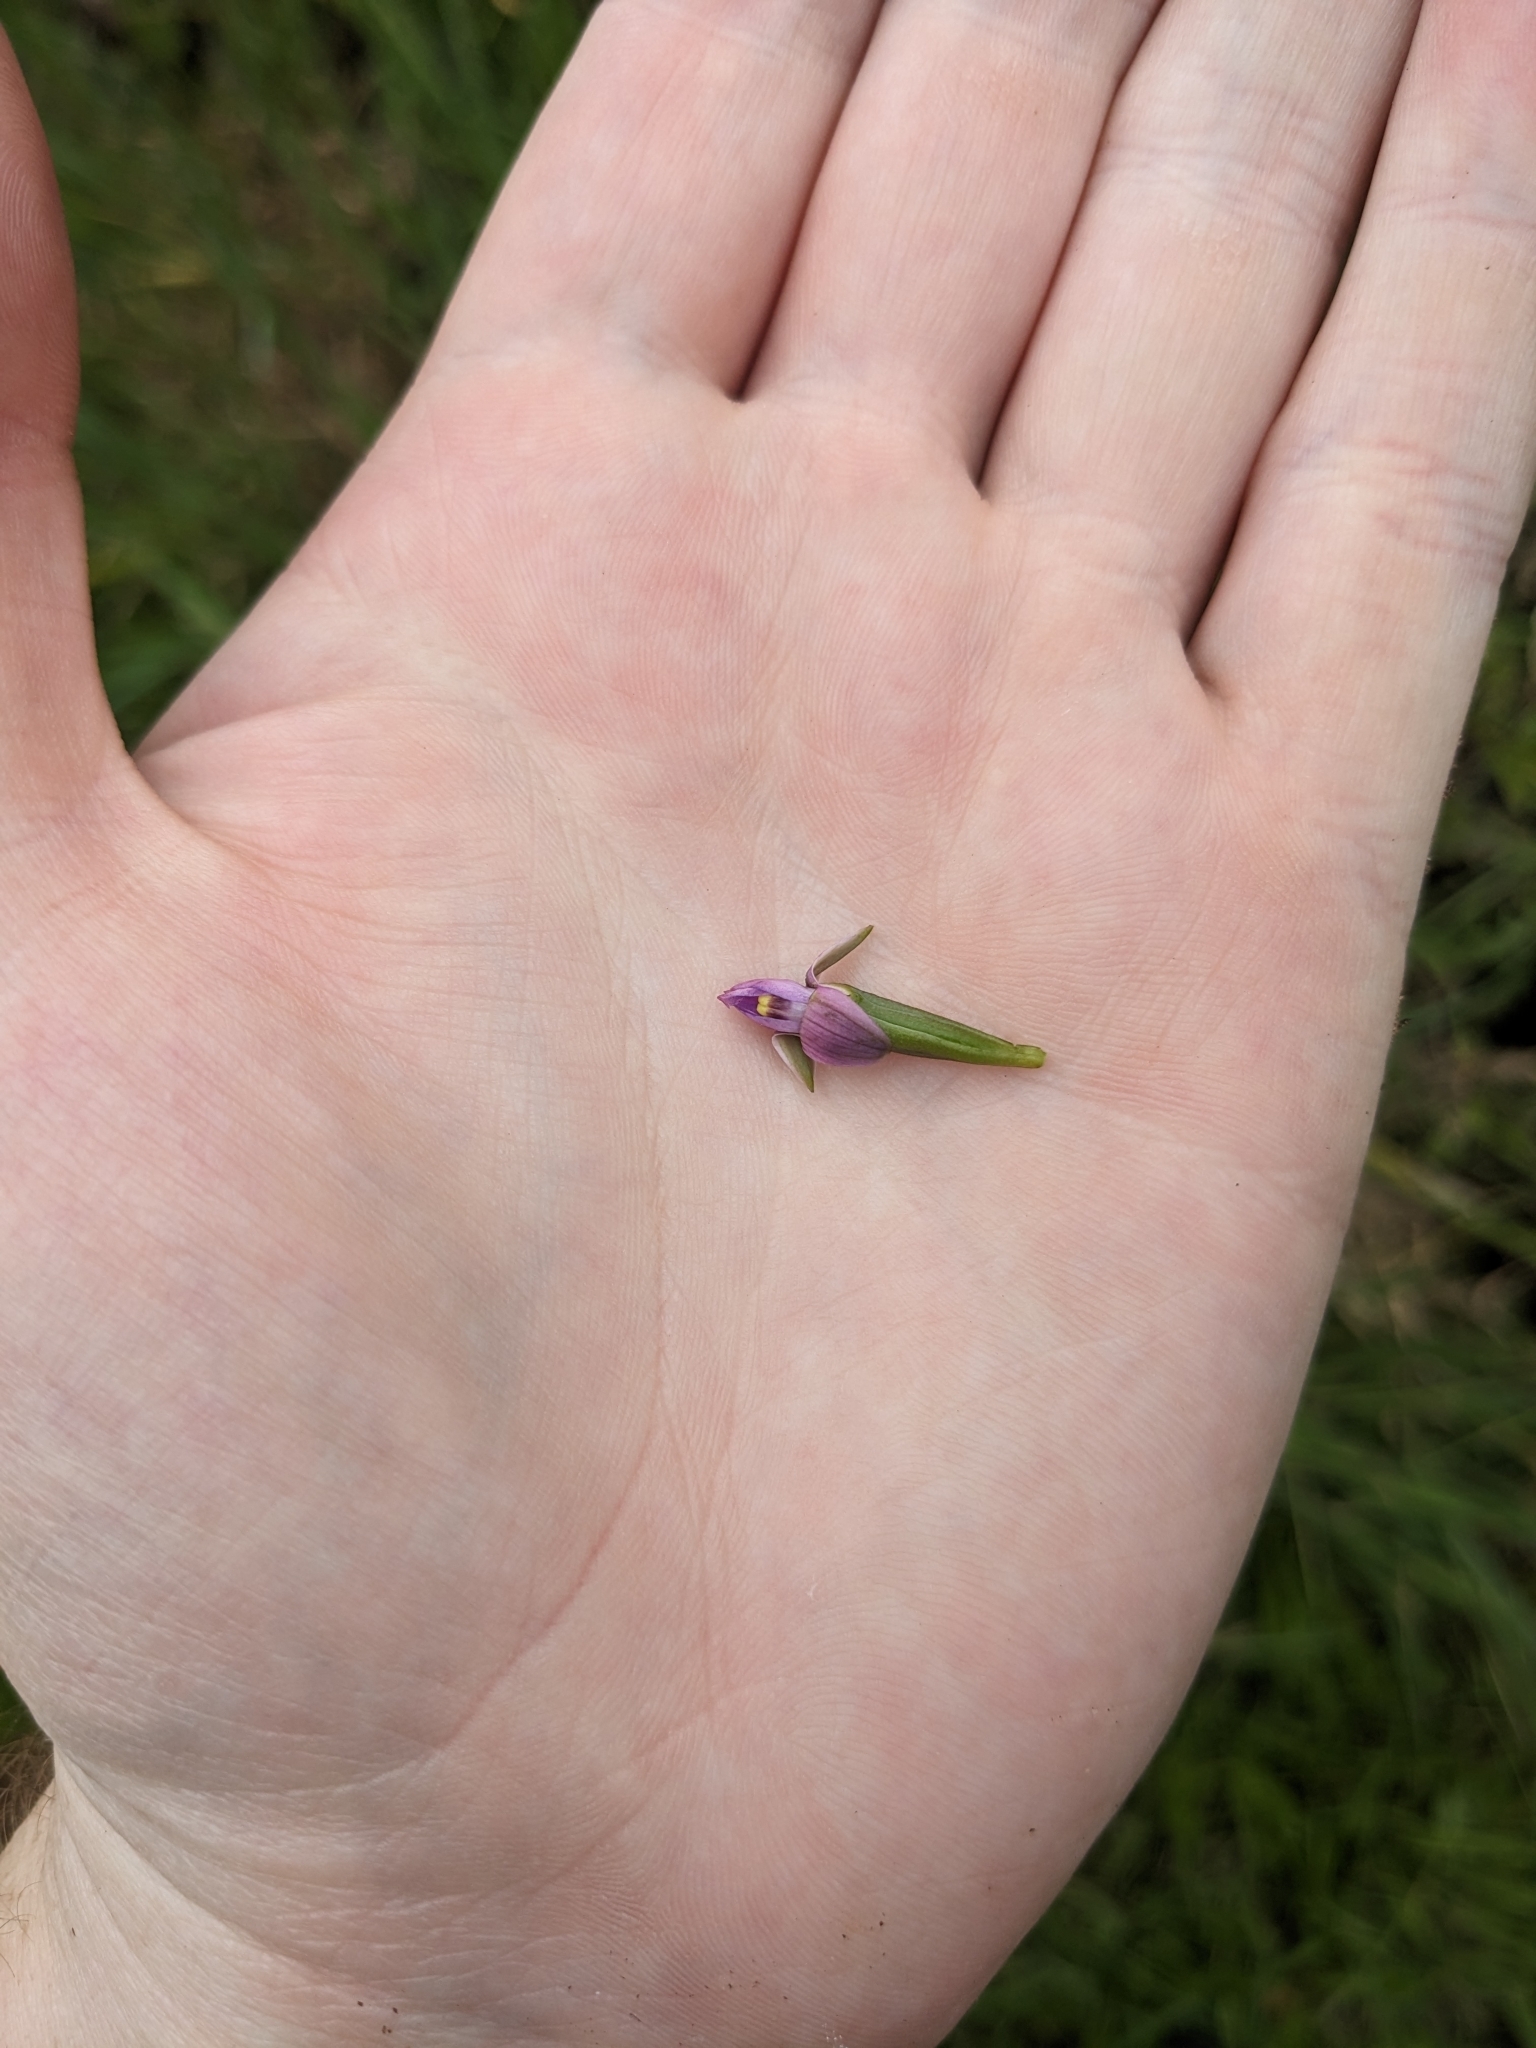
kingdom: Plantae
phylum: Tracheophyta
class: Liliopsida
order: Asparagales
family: Orchidaceae
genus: Thelymitra
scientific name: Thelymitra pauciflora
